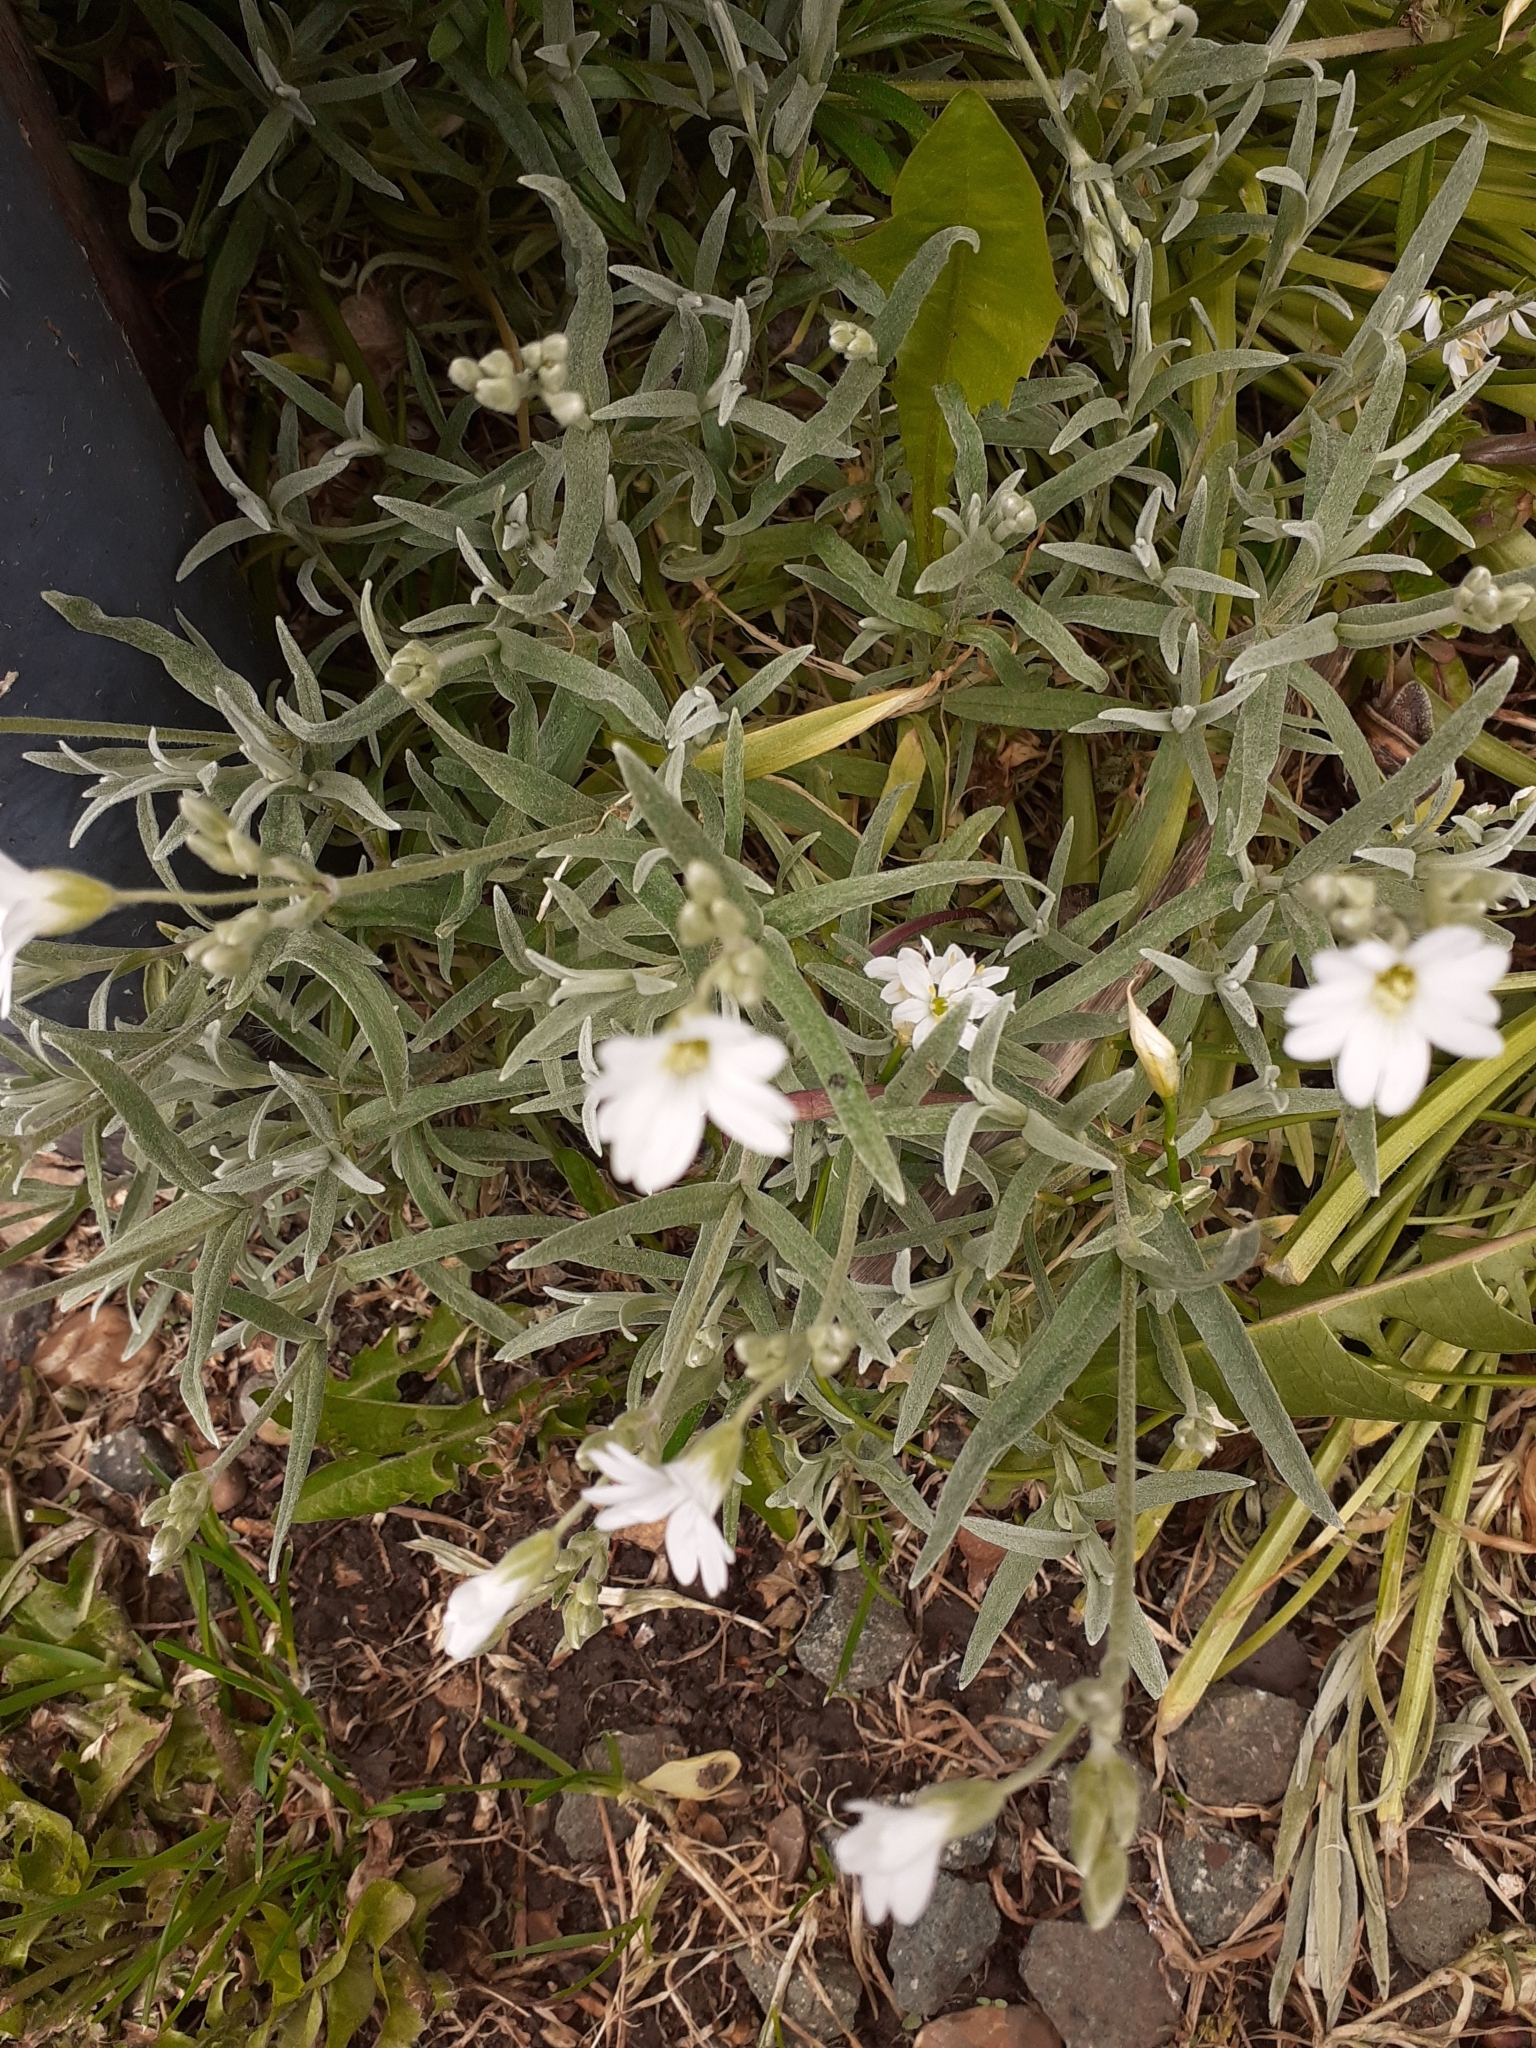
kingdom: Plantae
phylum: Tracheophyta
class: Magnoliopsida
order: Caryophyllales
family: Caryophyllaceae
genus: Cerastium
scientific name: Cerastium tomentosum
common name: Snow-in-summer
